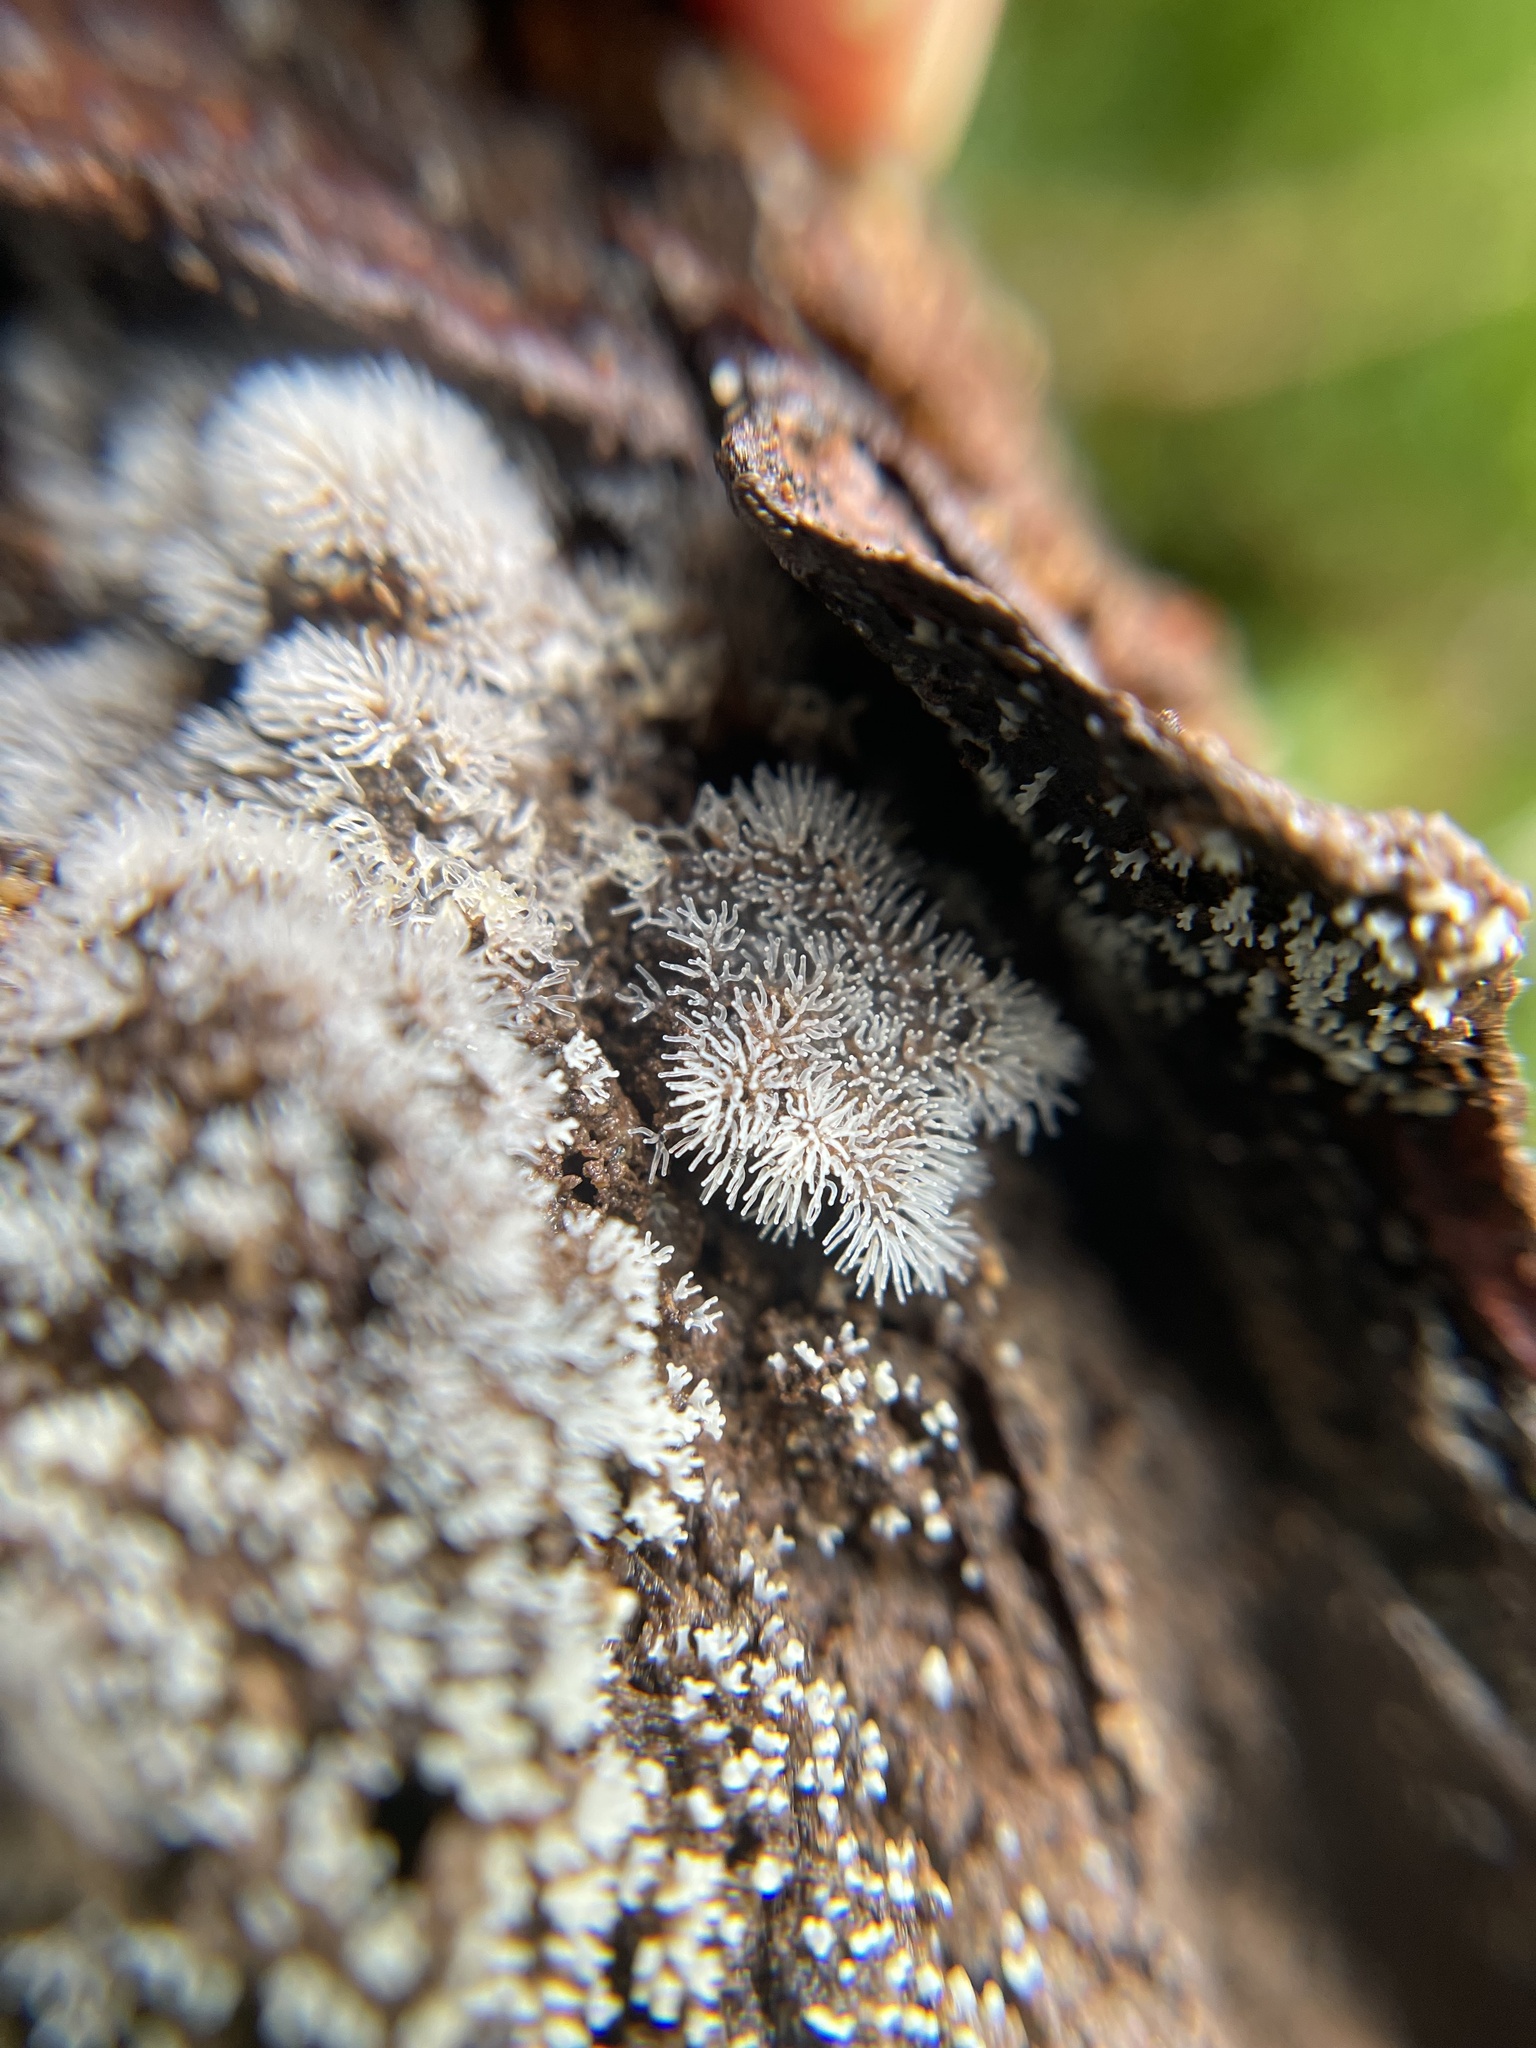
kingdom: Protozoa
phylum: Mycetozoa
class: Protosteliomycetes
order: Ceratiomyxales
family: Ceratiomyxaceae
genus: Ceratiomyxa
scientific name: Ceratiomyxa fruticulosa
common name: Honeycomb coral slime mold
